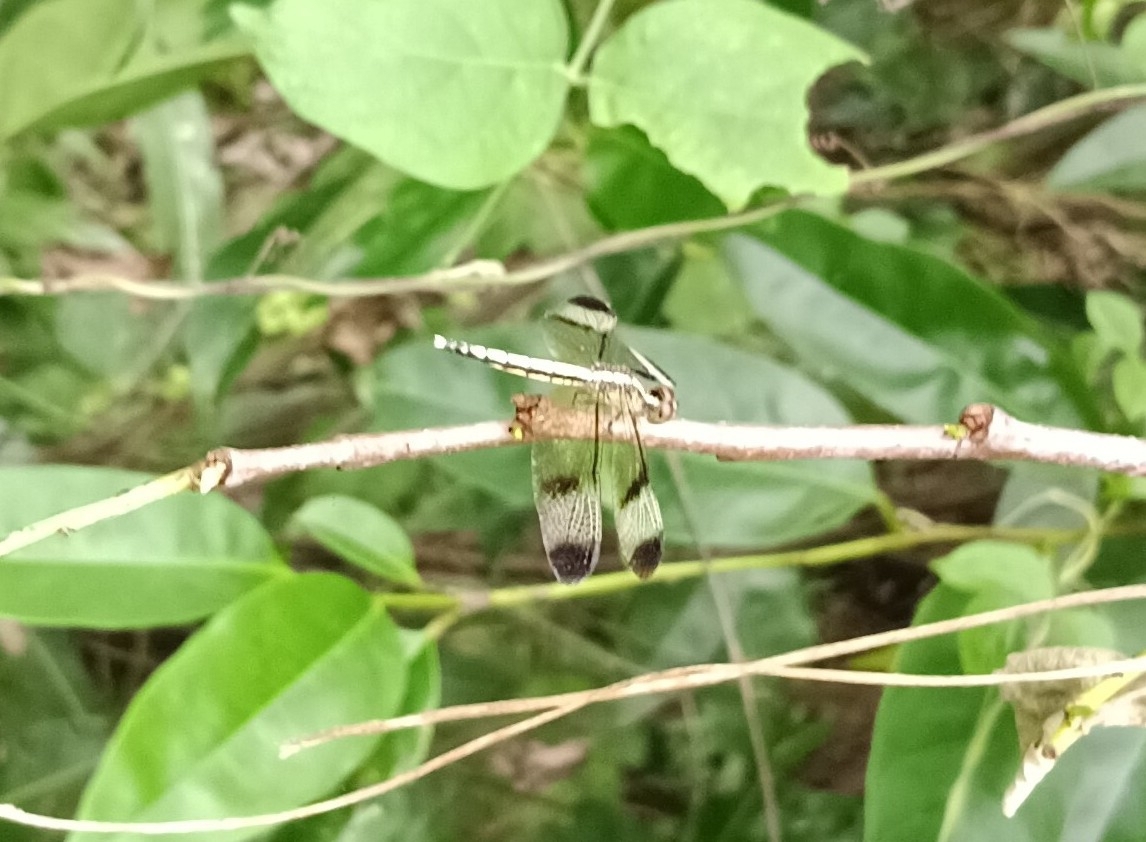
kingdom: Animalia
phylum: Arthropoda
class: Insecta
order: Odonata
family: Libellulidae
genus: Neurothemis
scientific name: Neurothemis tullia
